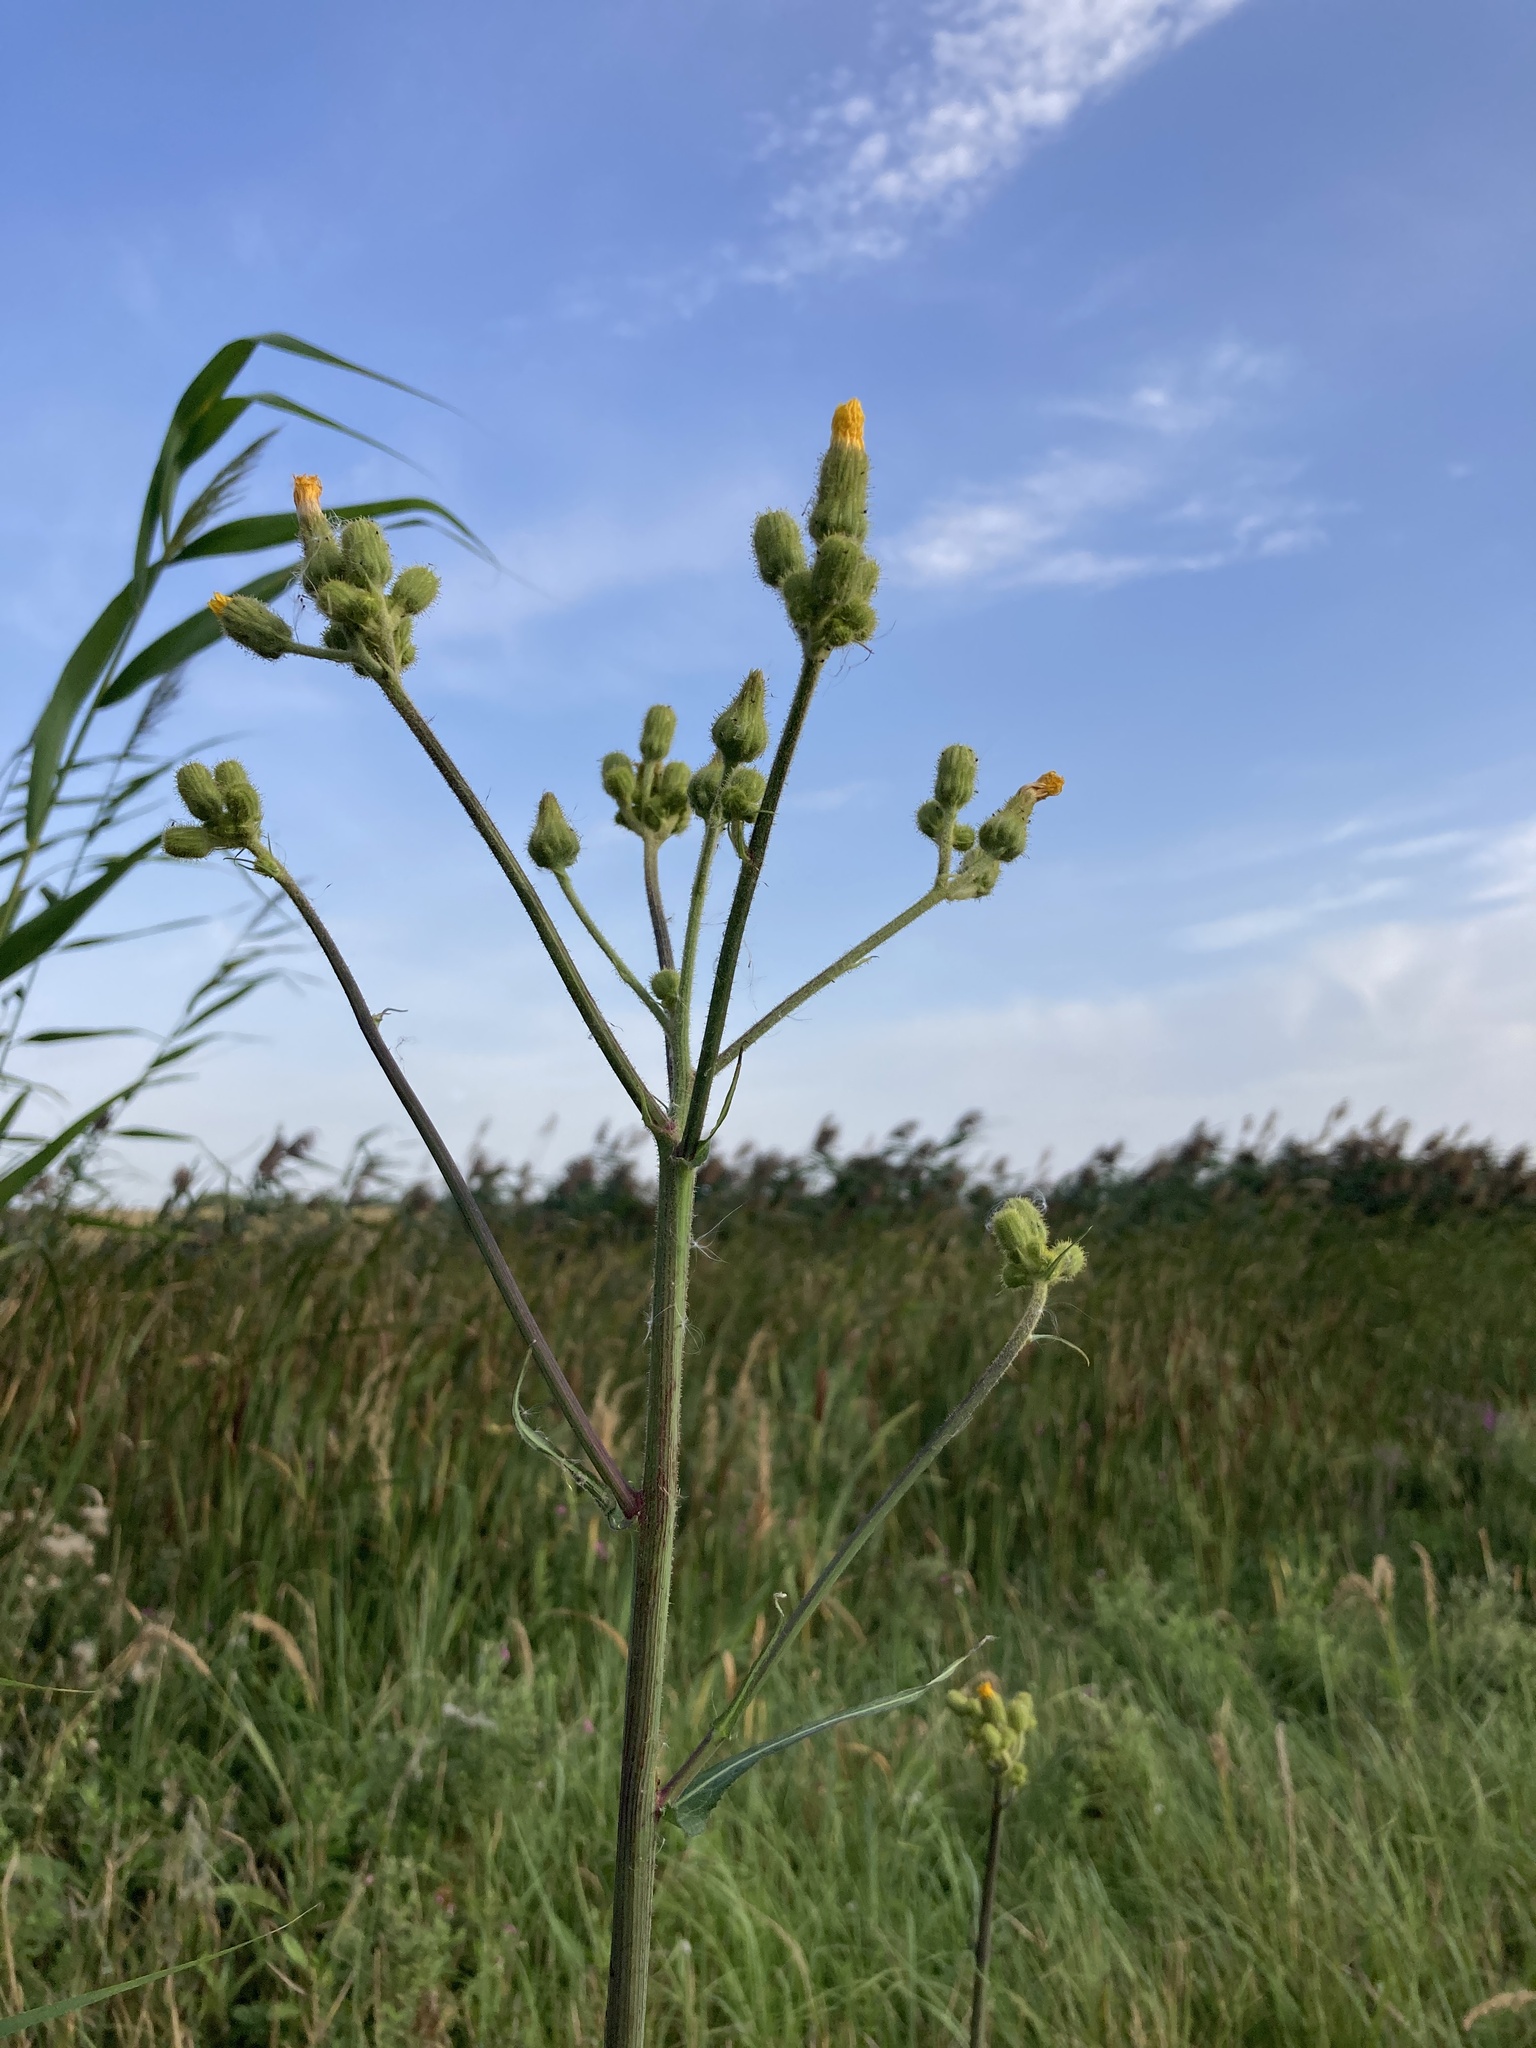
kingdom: Plantae
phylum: Tracheophyta
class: Magnoliopsida
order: Asterales
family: Asteraceae
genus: Sonchus
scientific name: Sonchus palustris
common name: Marsh sow-thistle
